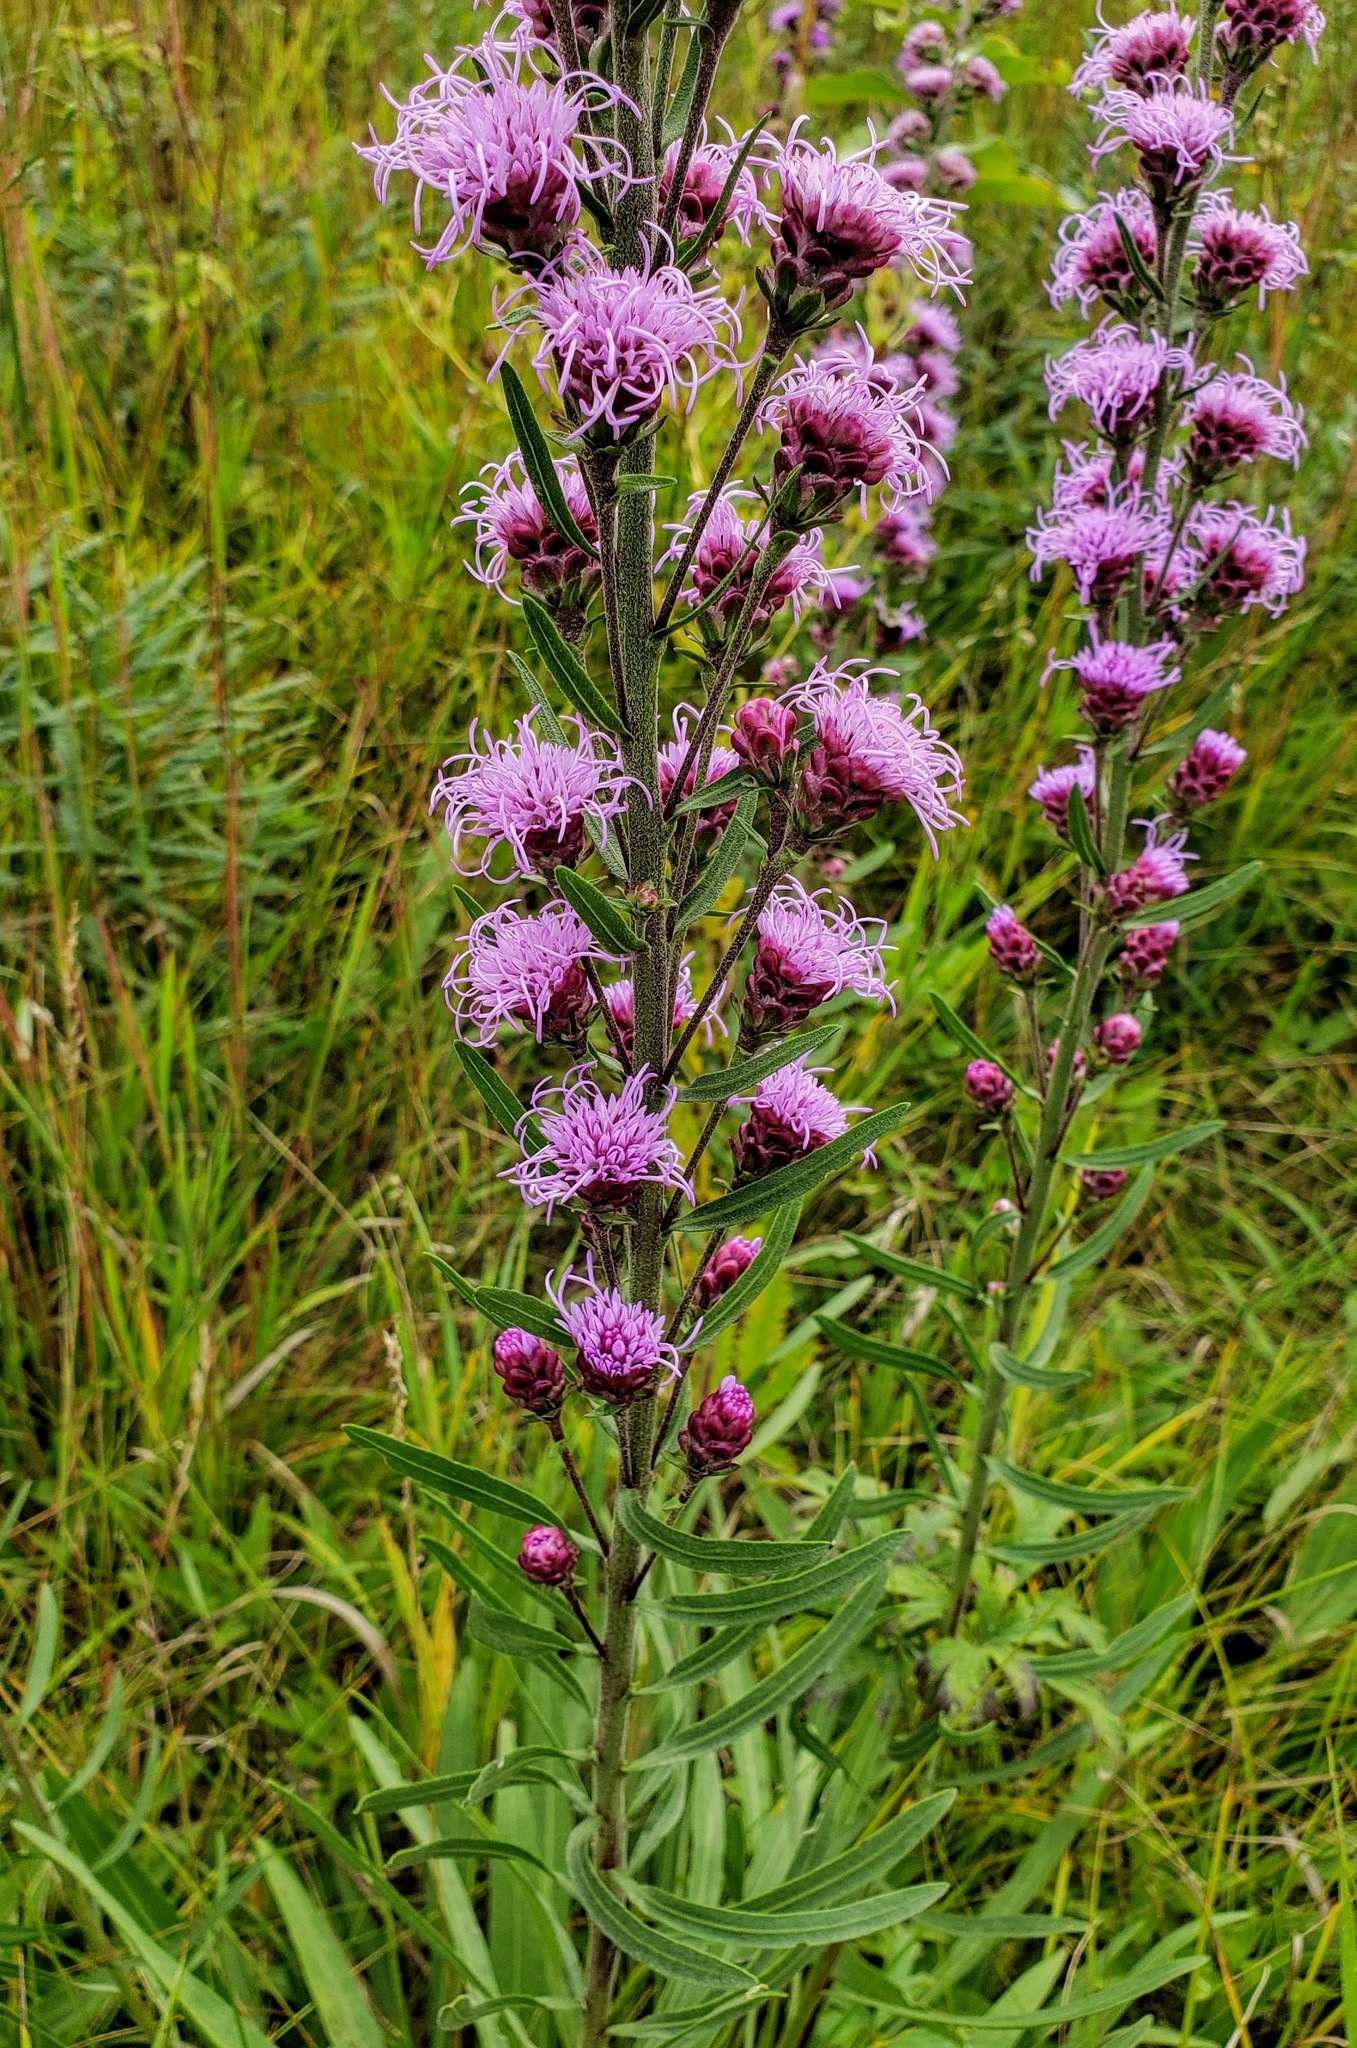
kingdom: Plantae
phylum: Tracheophyta
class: Magnoliopsida
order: Asterales
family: Asteraceae
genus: Liatris
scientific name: Liatris ligulistylis
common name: Northern plains gayfeather
